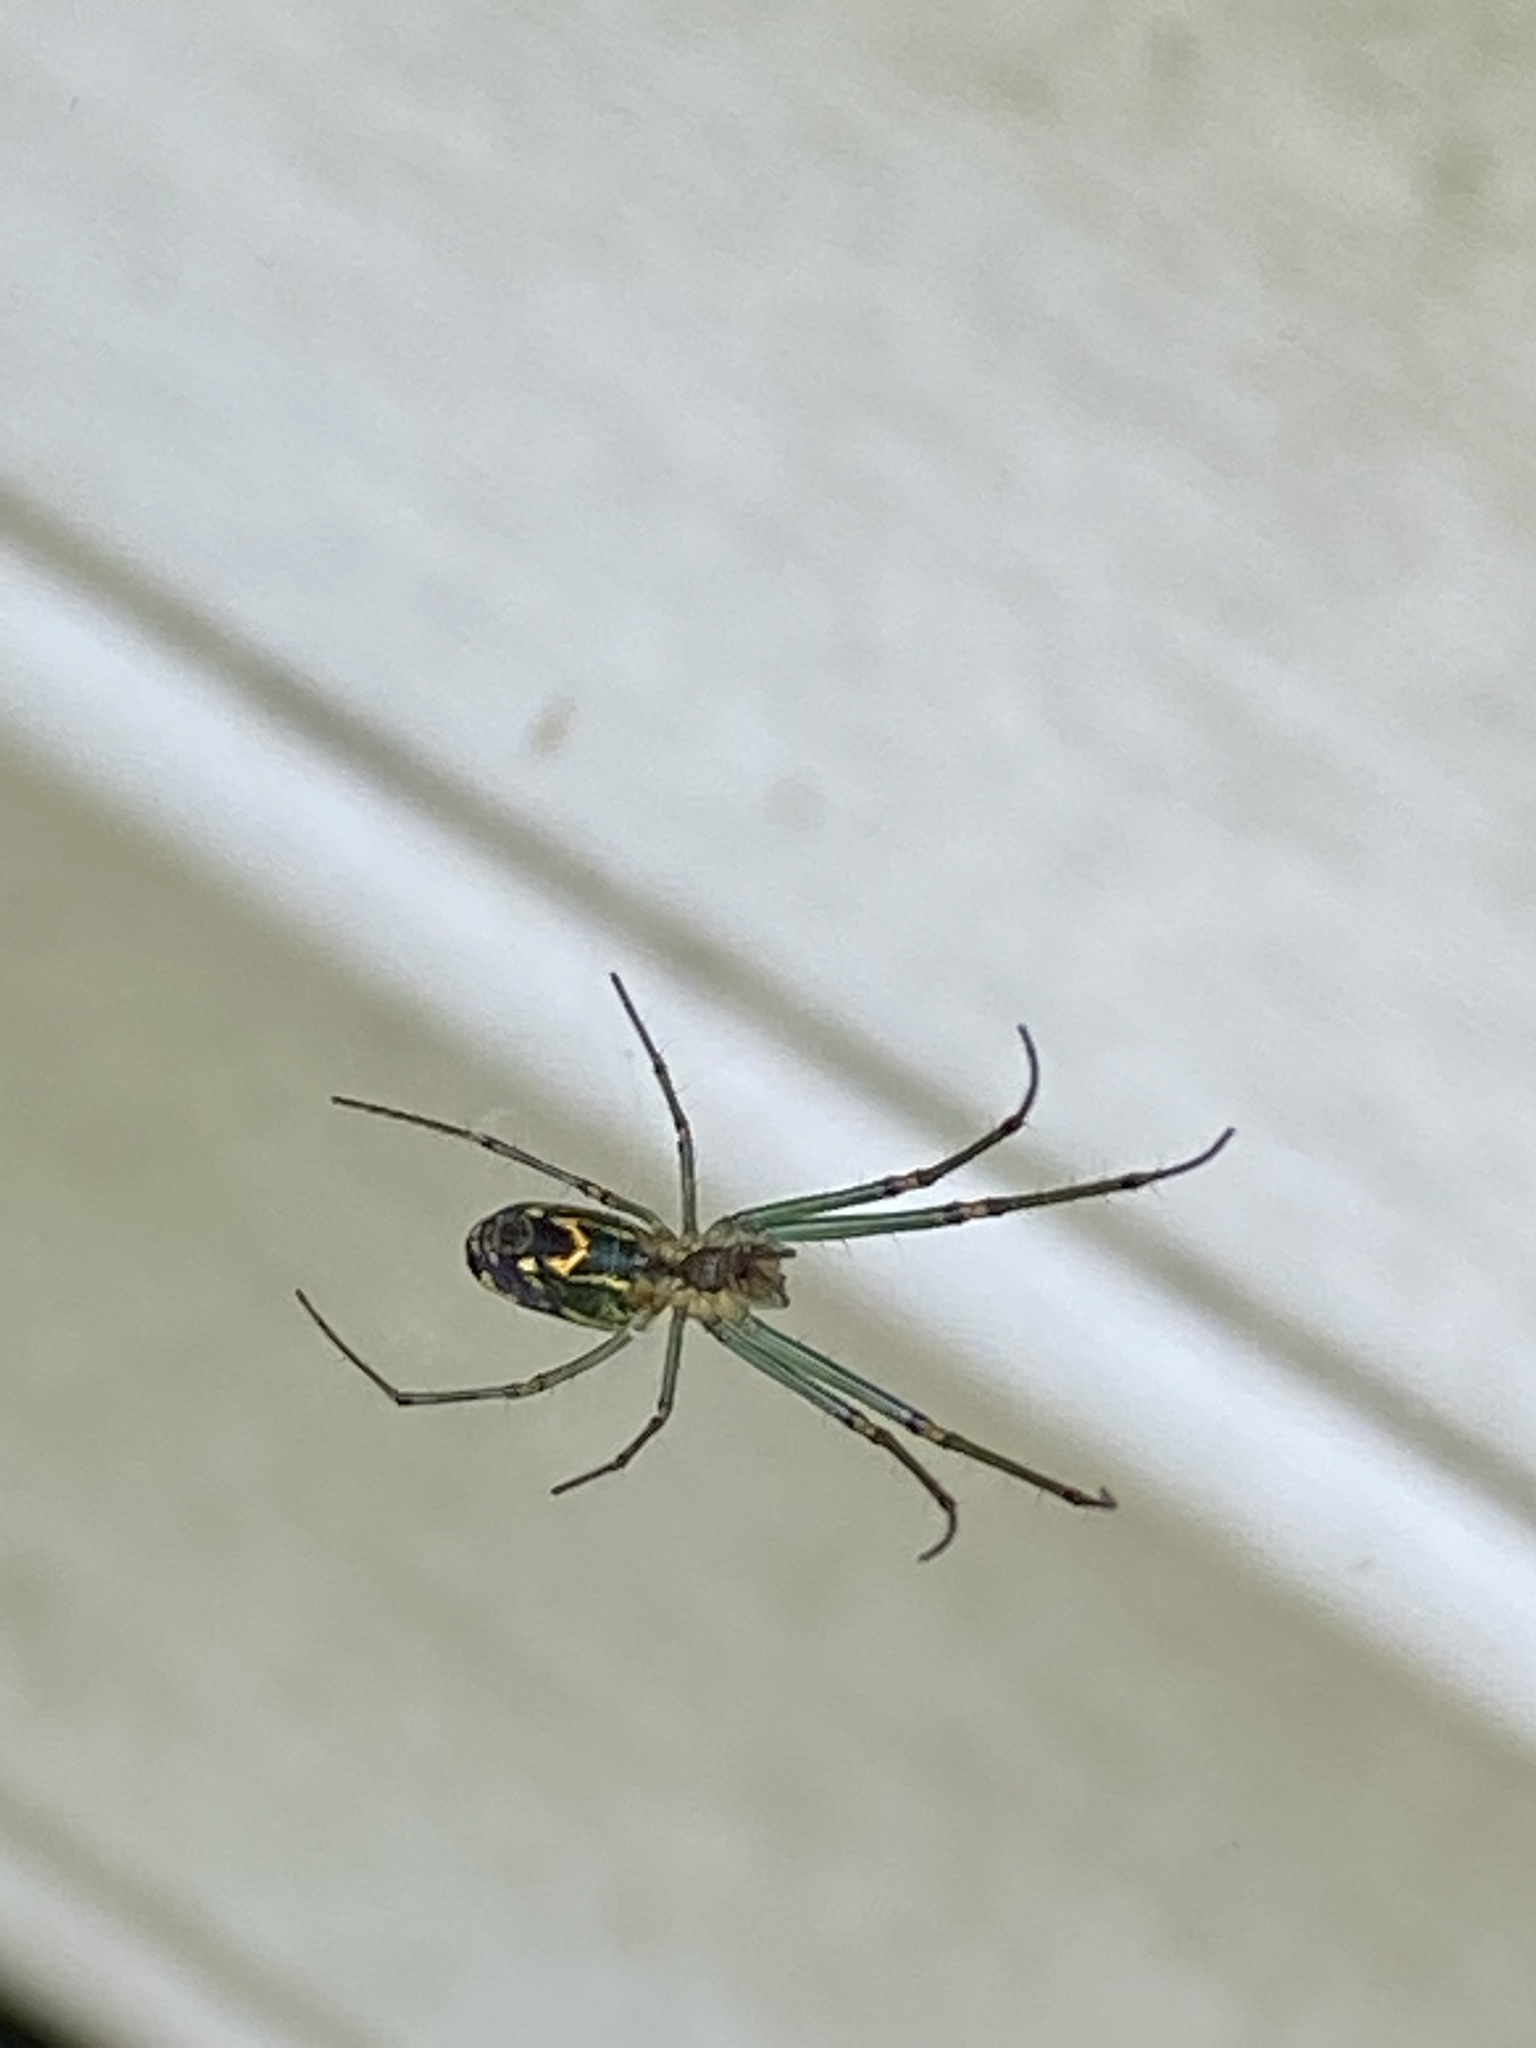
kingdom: Animalia
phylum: Arthropoda
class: Arachnida
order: Araneae
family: Tetragnathidae
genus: Leucauge
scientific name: Leucauge venusta
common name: Longjawed orb weavers
